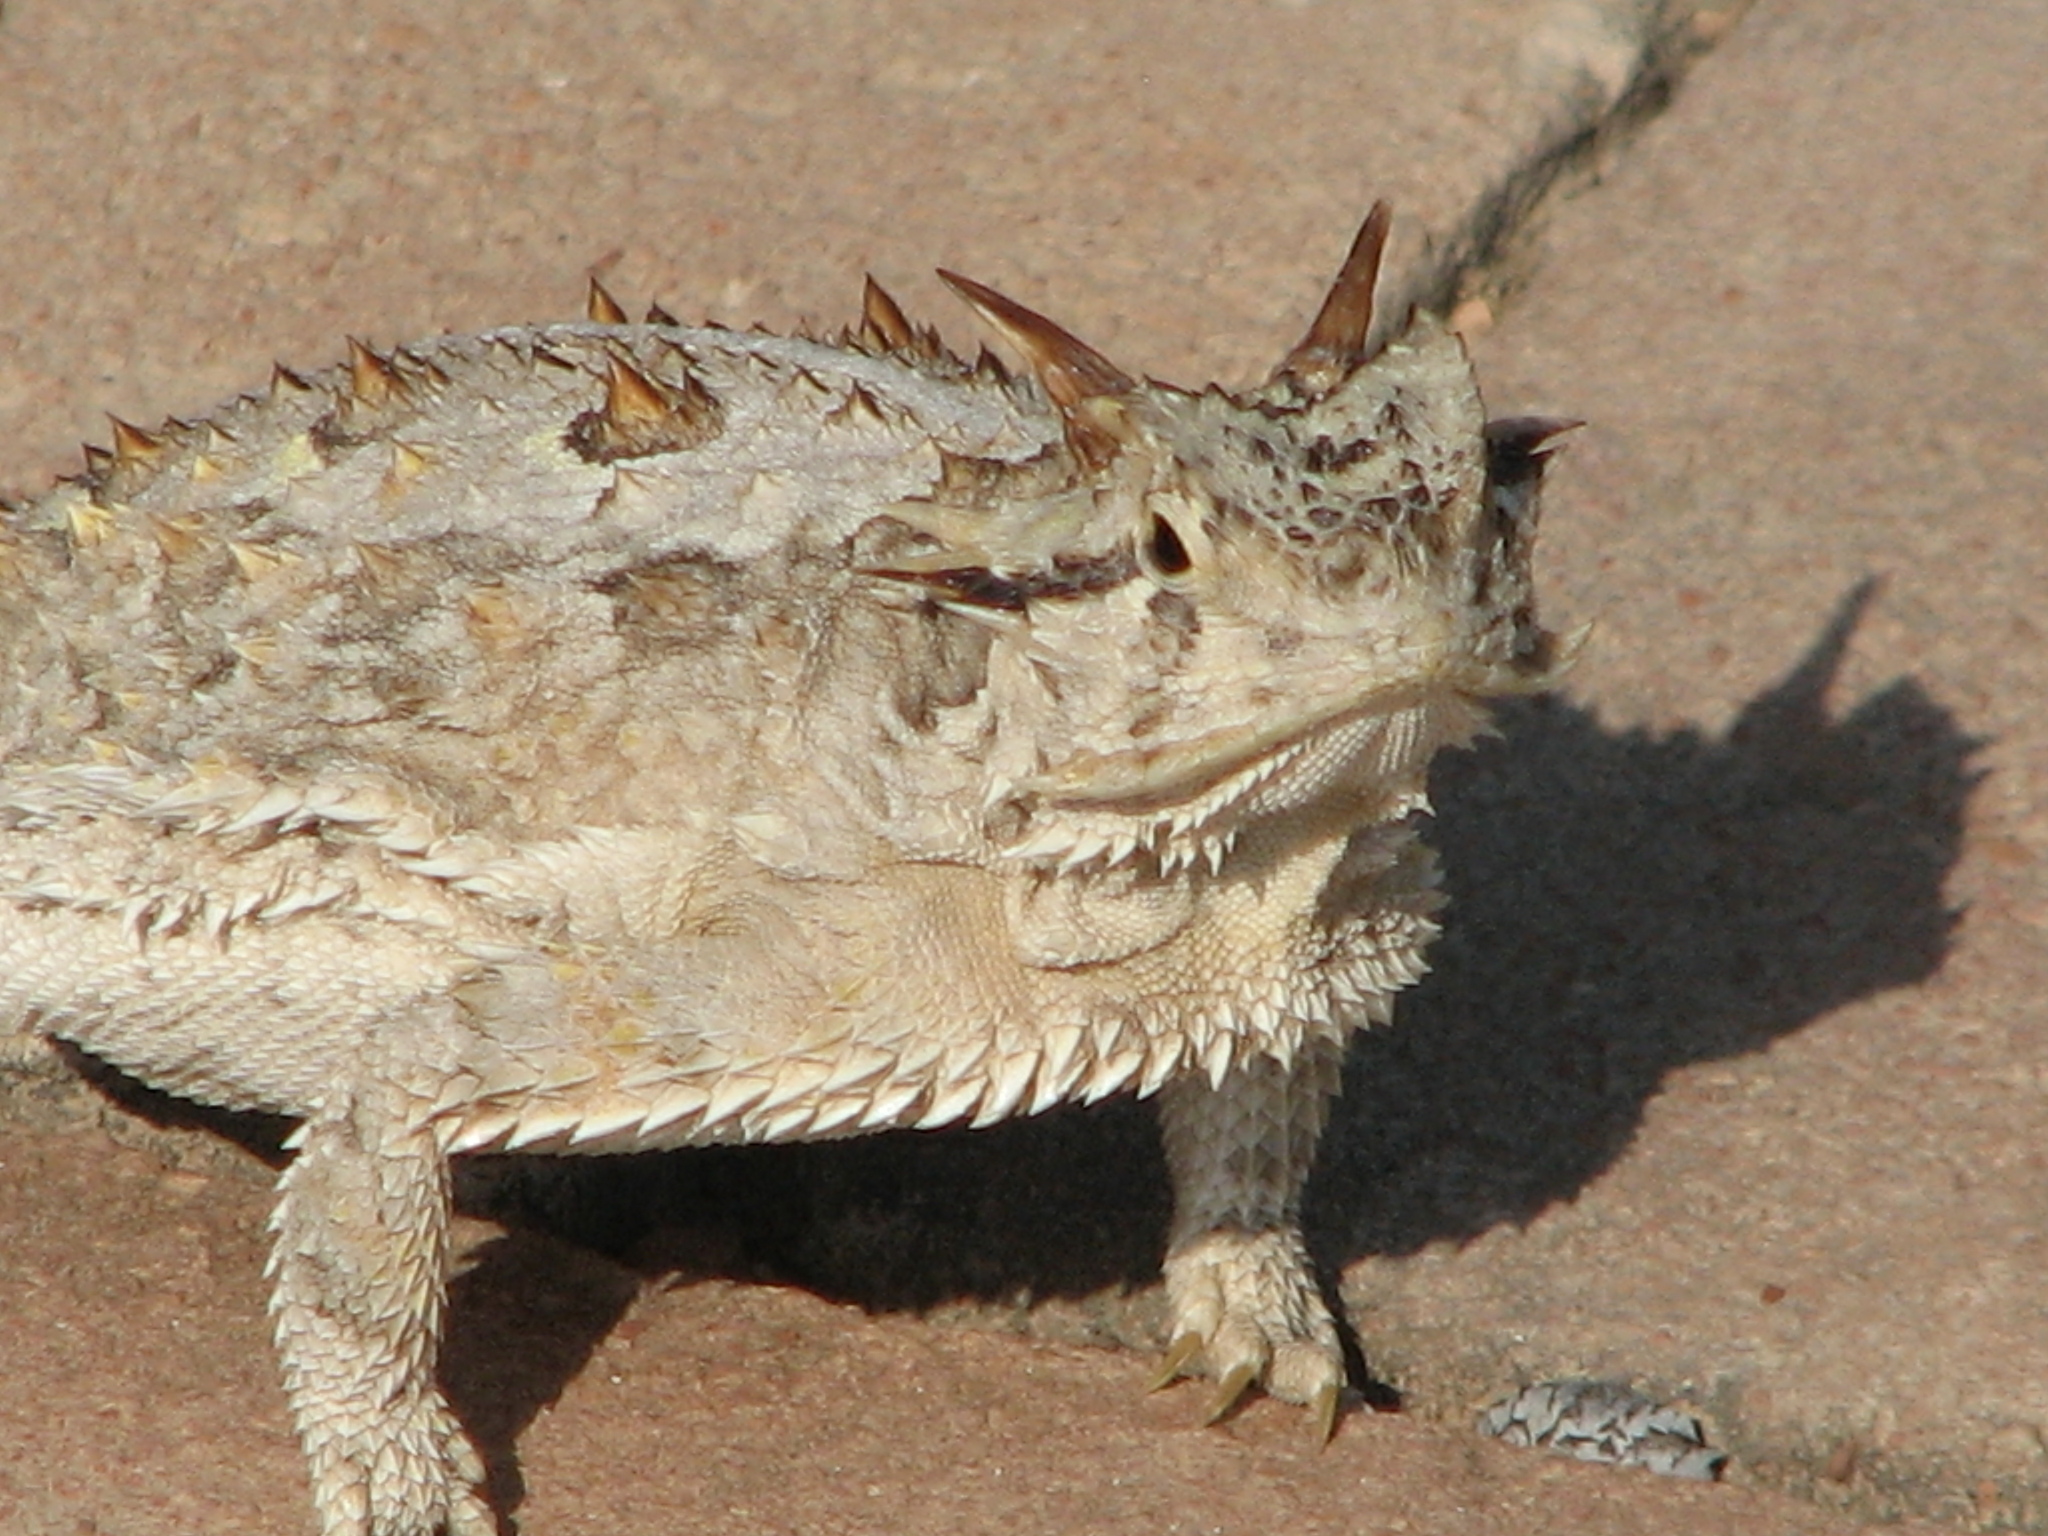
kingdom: Animalia
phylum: Chordata
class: Squamata
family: Phrynosomatidae
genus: Phrynosoma
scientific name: Phrynosoma cornutum
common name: Texas horned lizard
